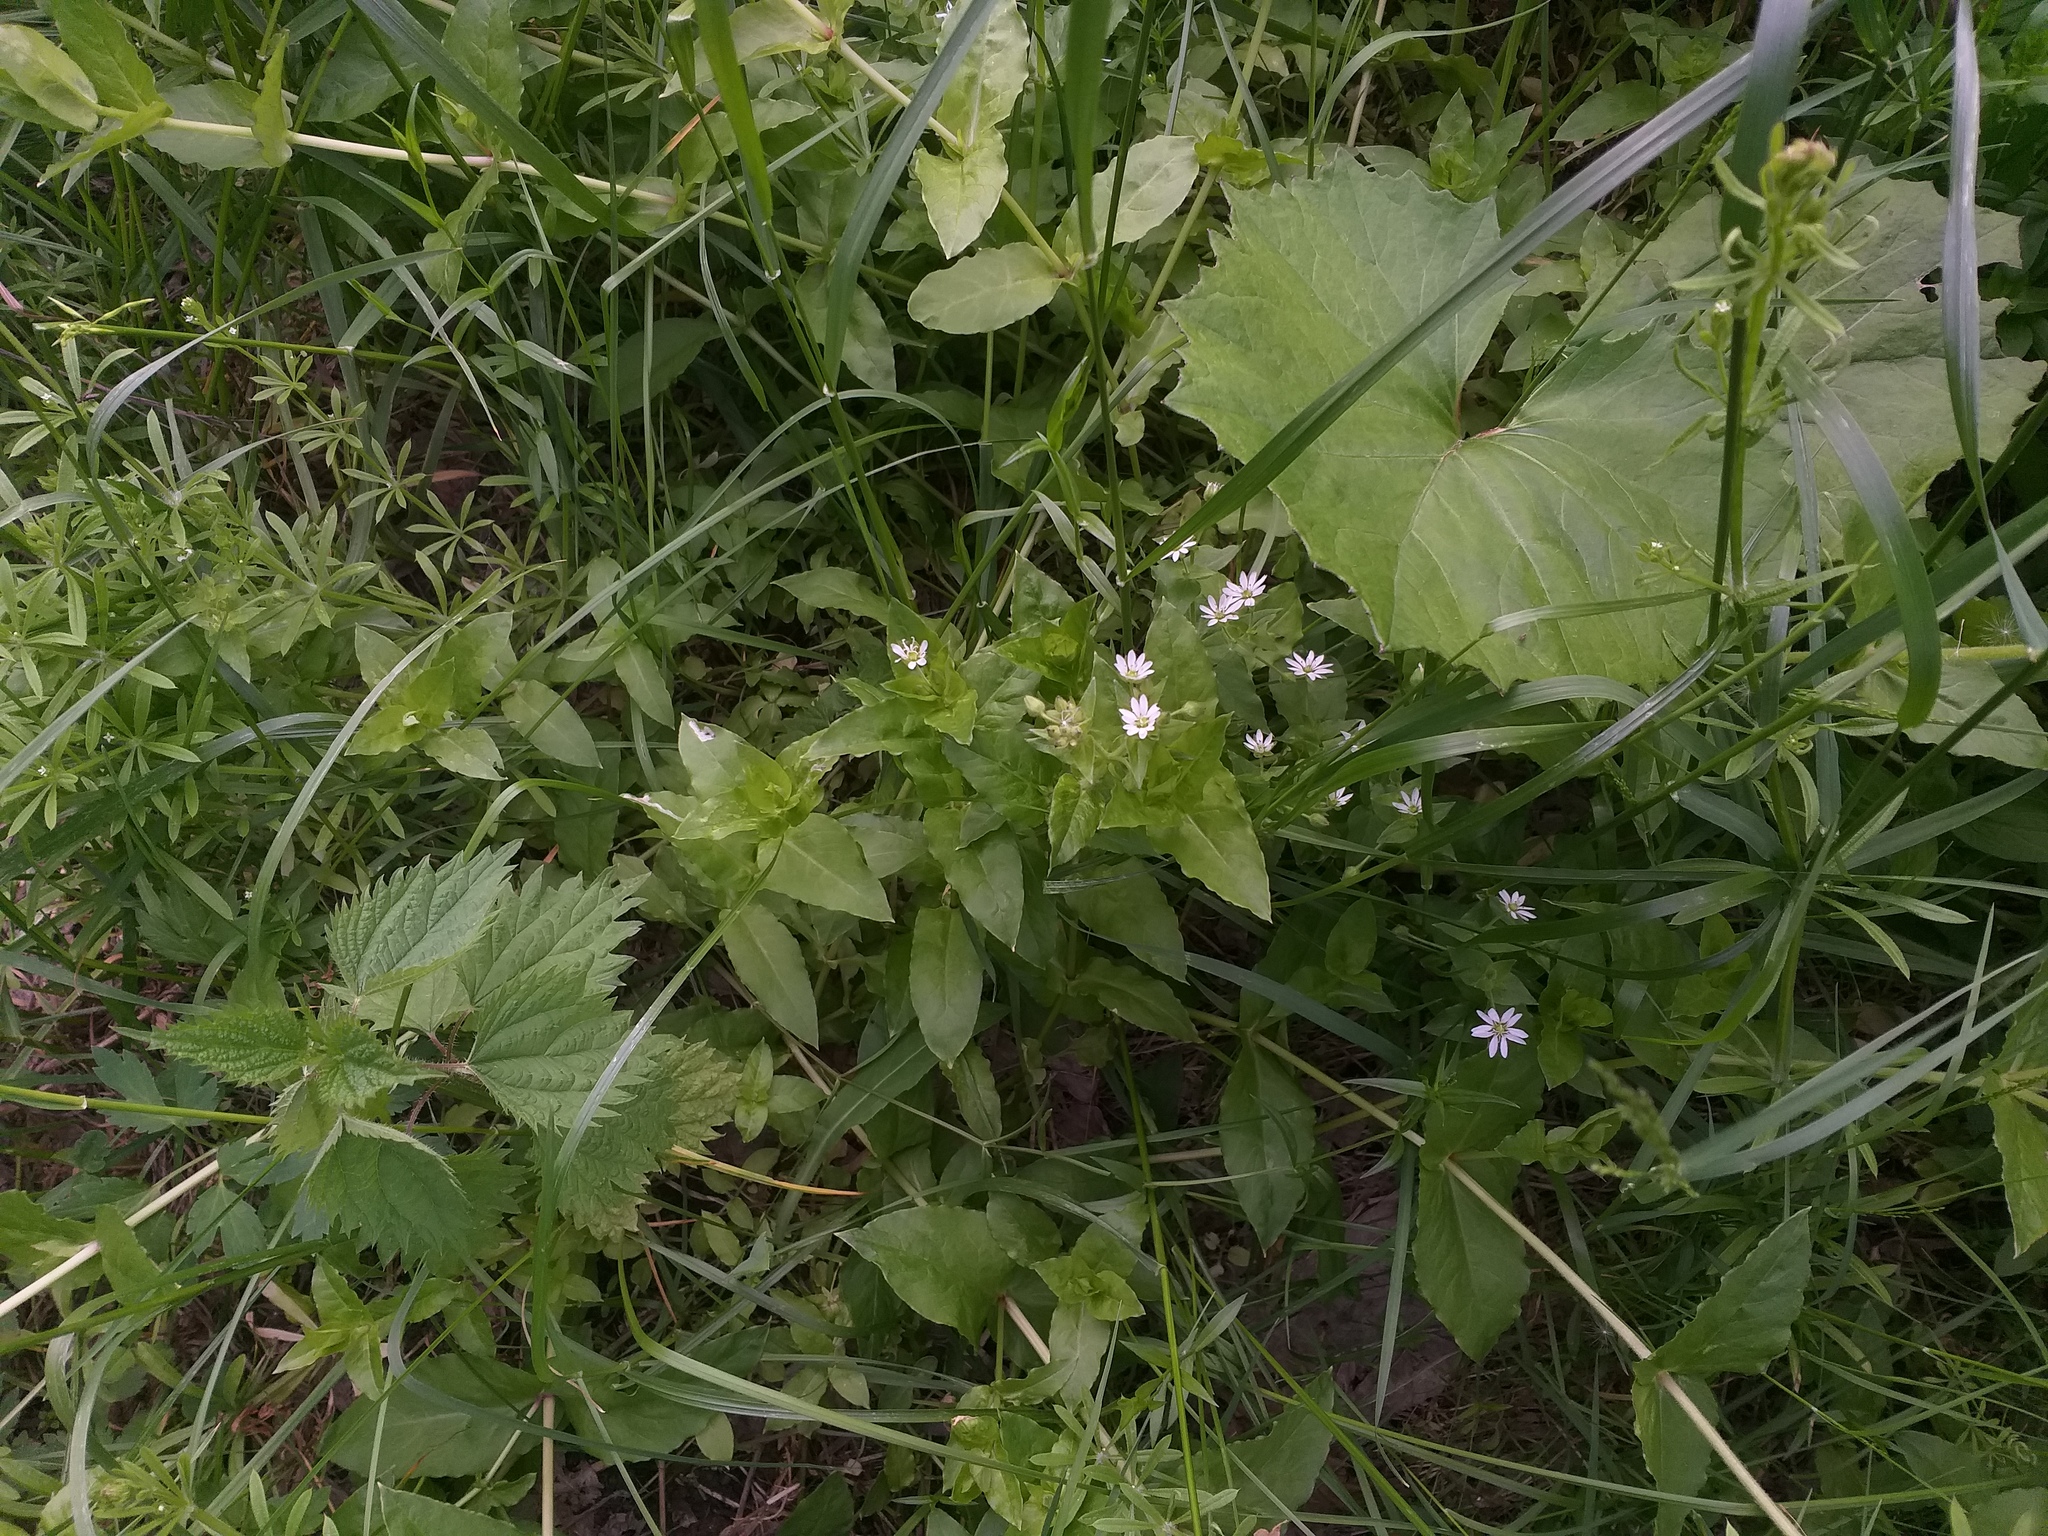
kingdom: Plantae
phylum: Tracheophyta
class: Magnoliopsida
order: Caryophyllales
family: Caryophyllaceae
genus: Stellaria
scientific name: Stellaria aquatica
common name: Water chickweed
